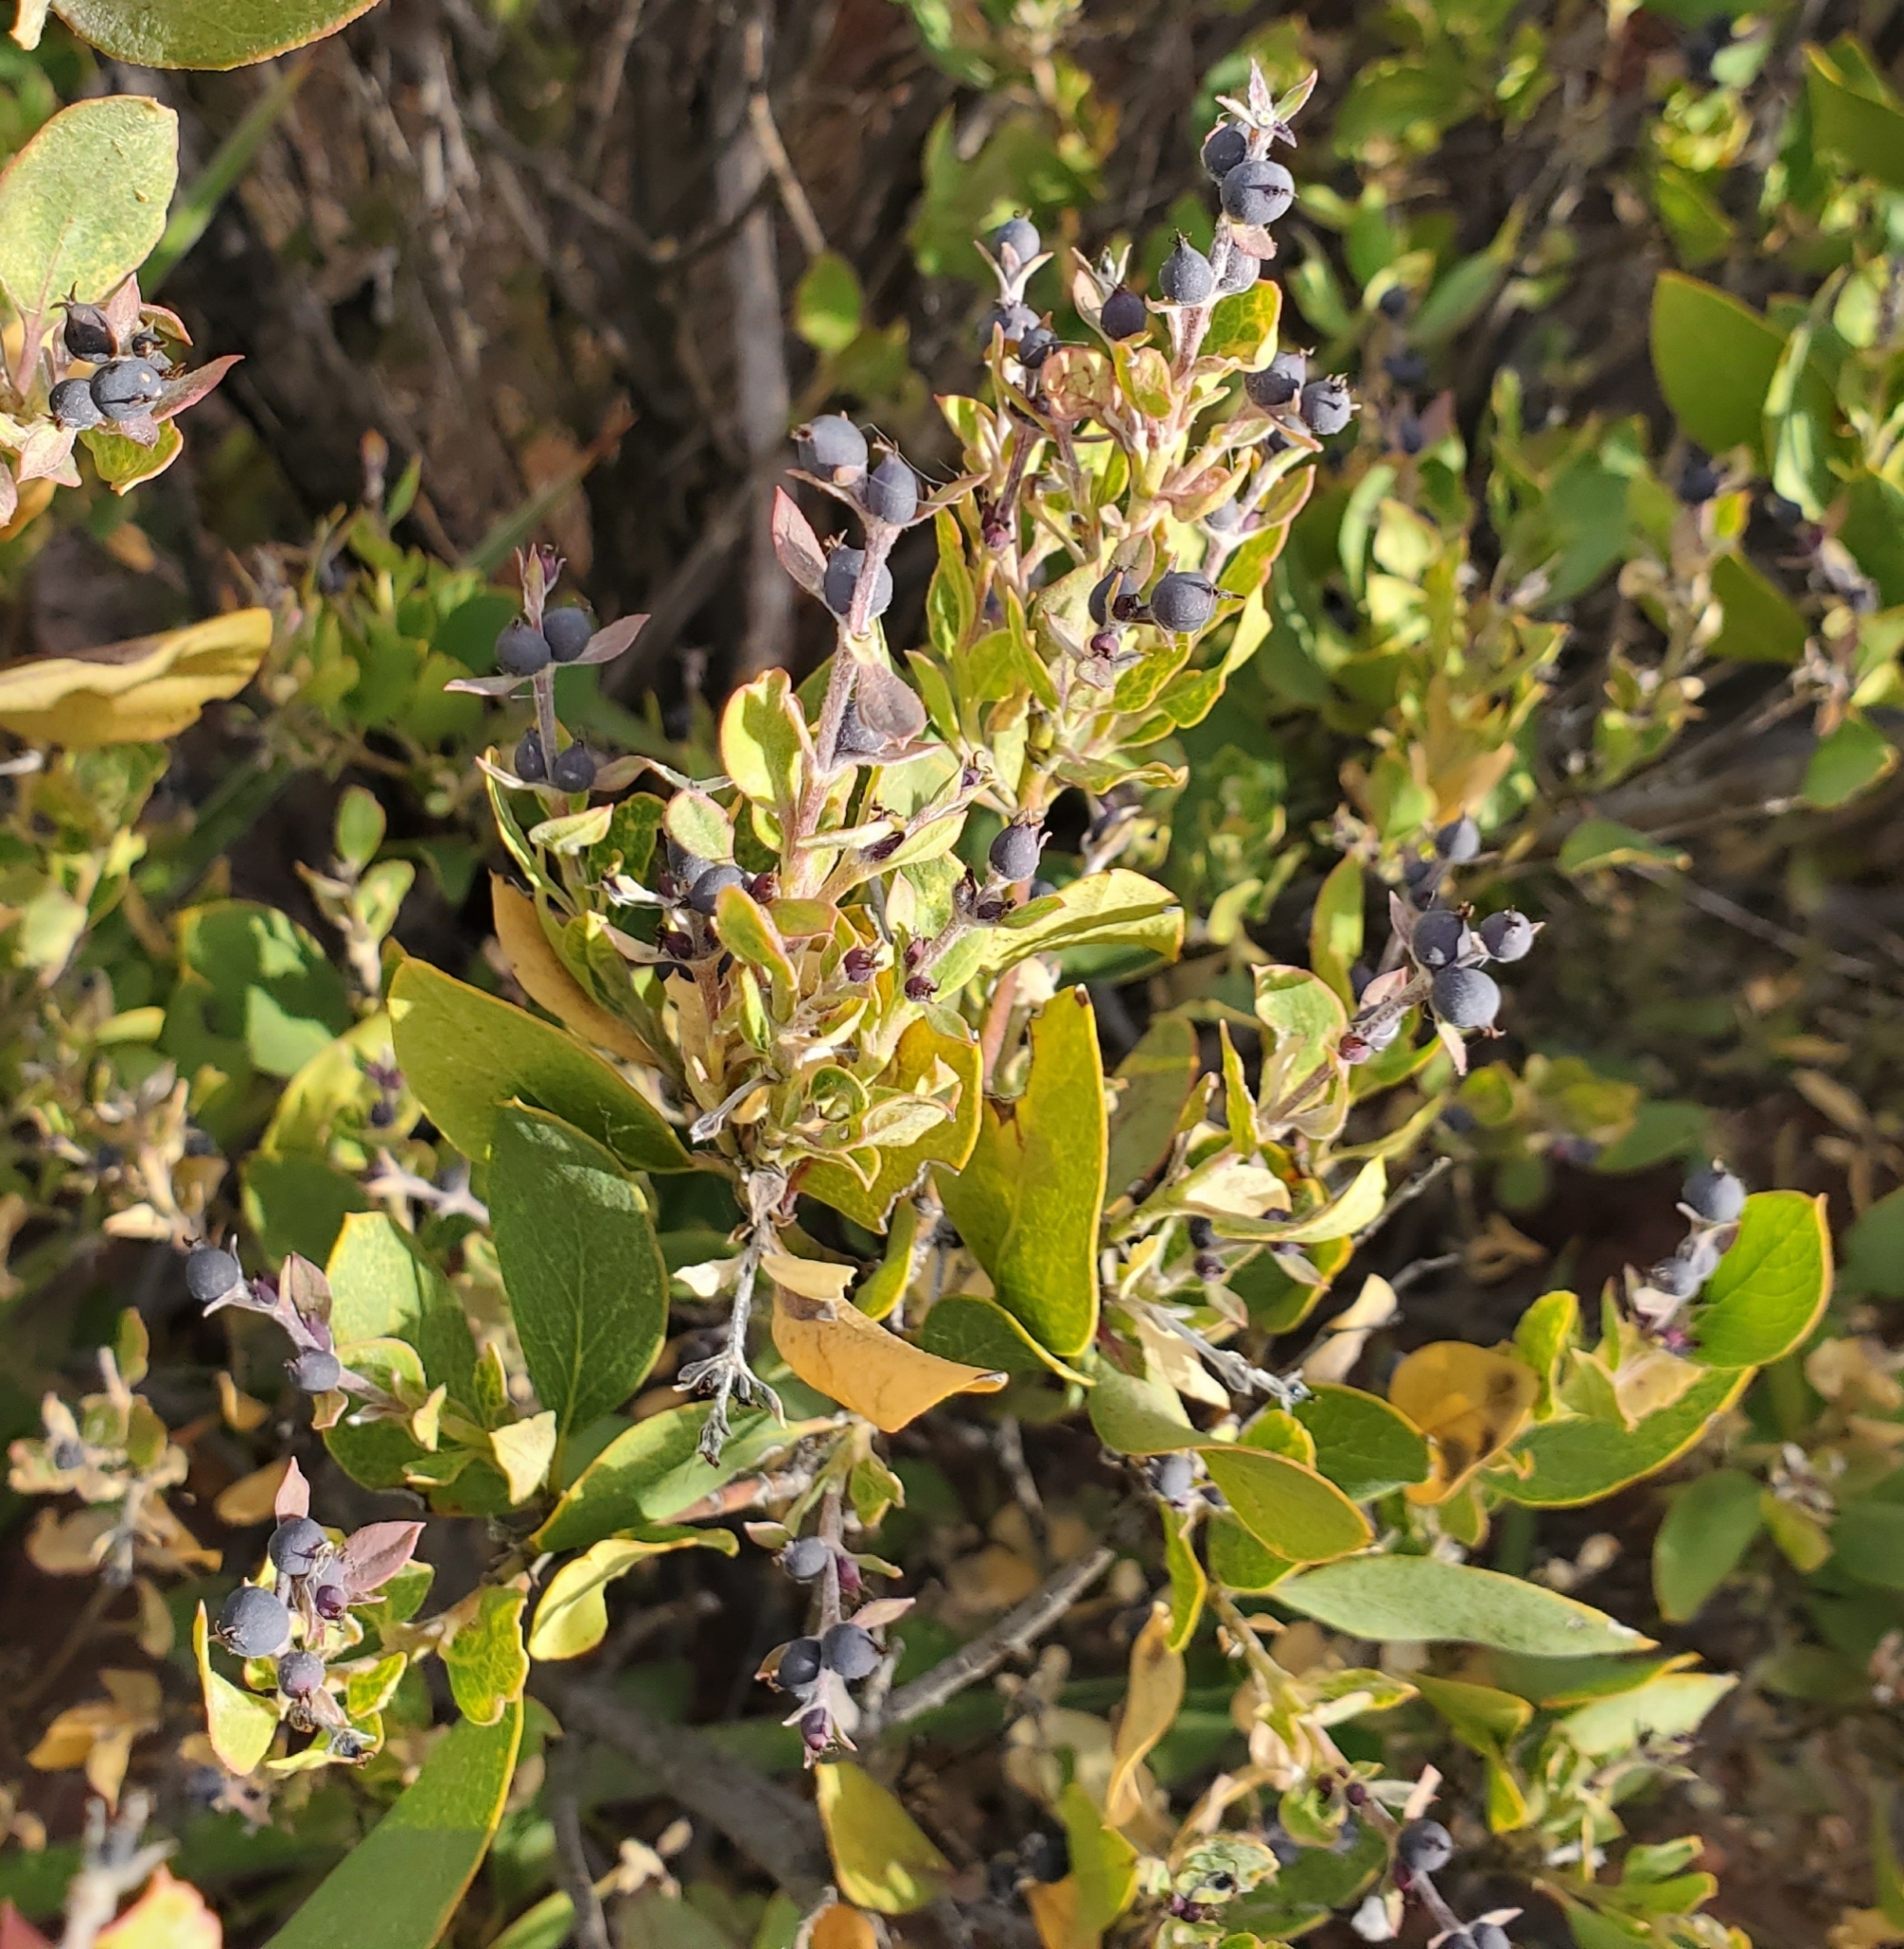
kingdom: Plantae
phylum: Tracheophyta
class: Magnoliopsida
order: Garryales
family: Garryaceae
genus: Garrya
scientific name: Garrya wrightii
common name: Wright's silktassel
